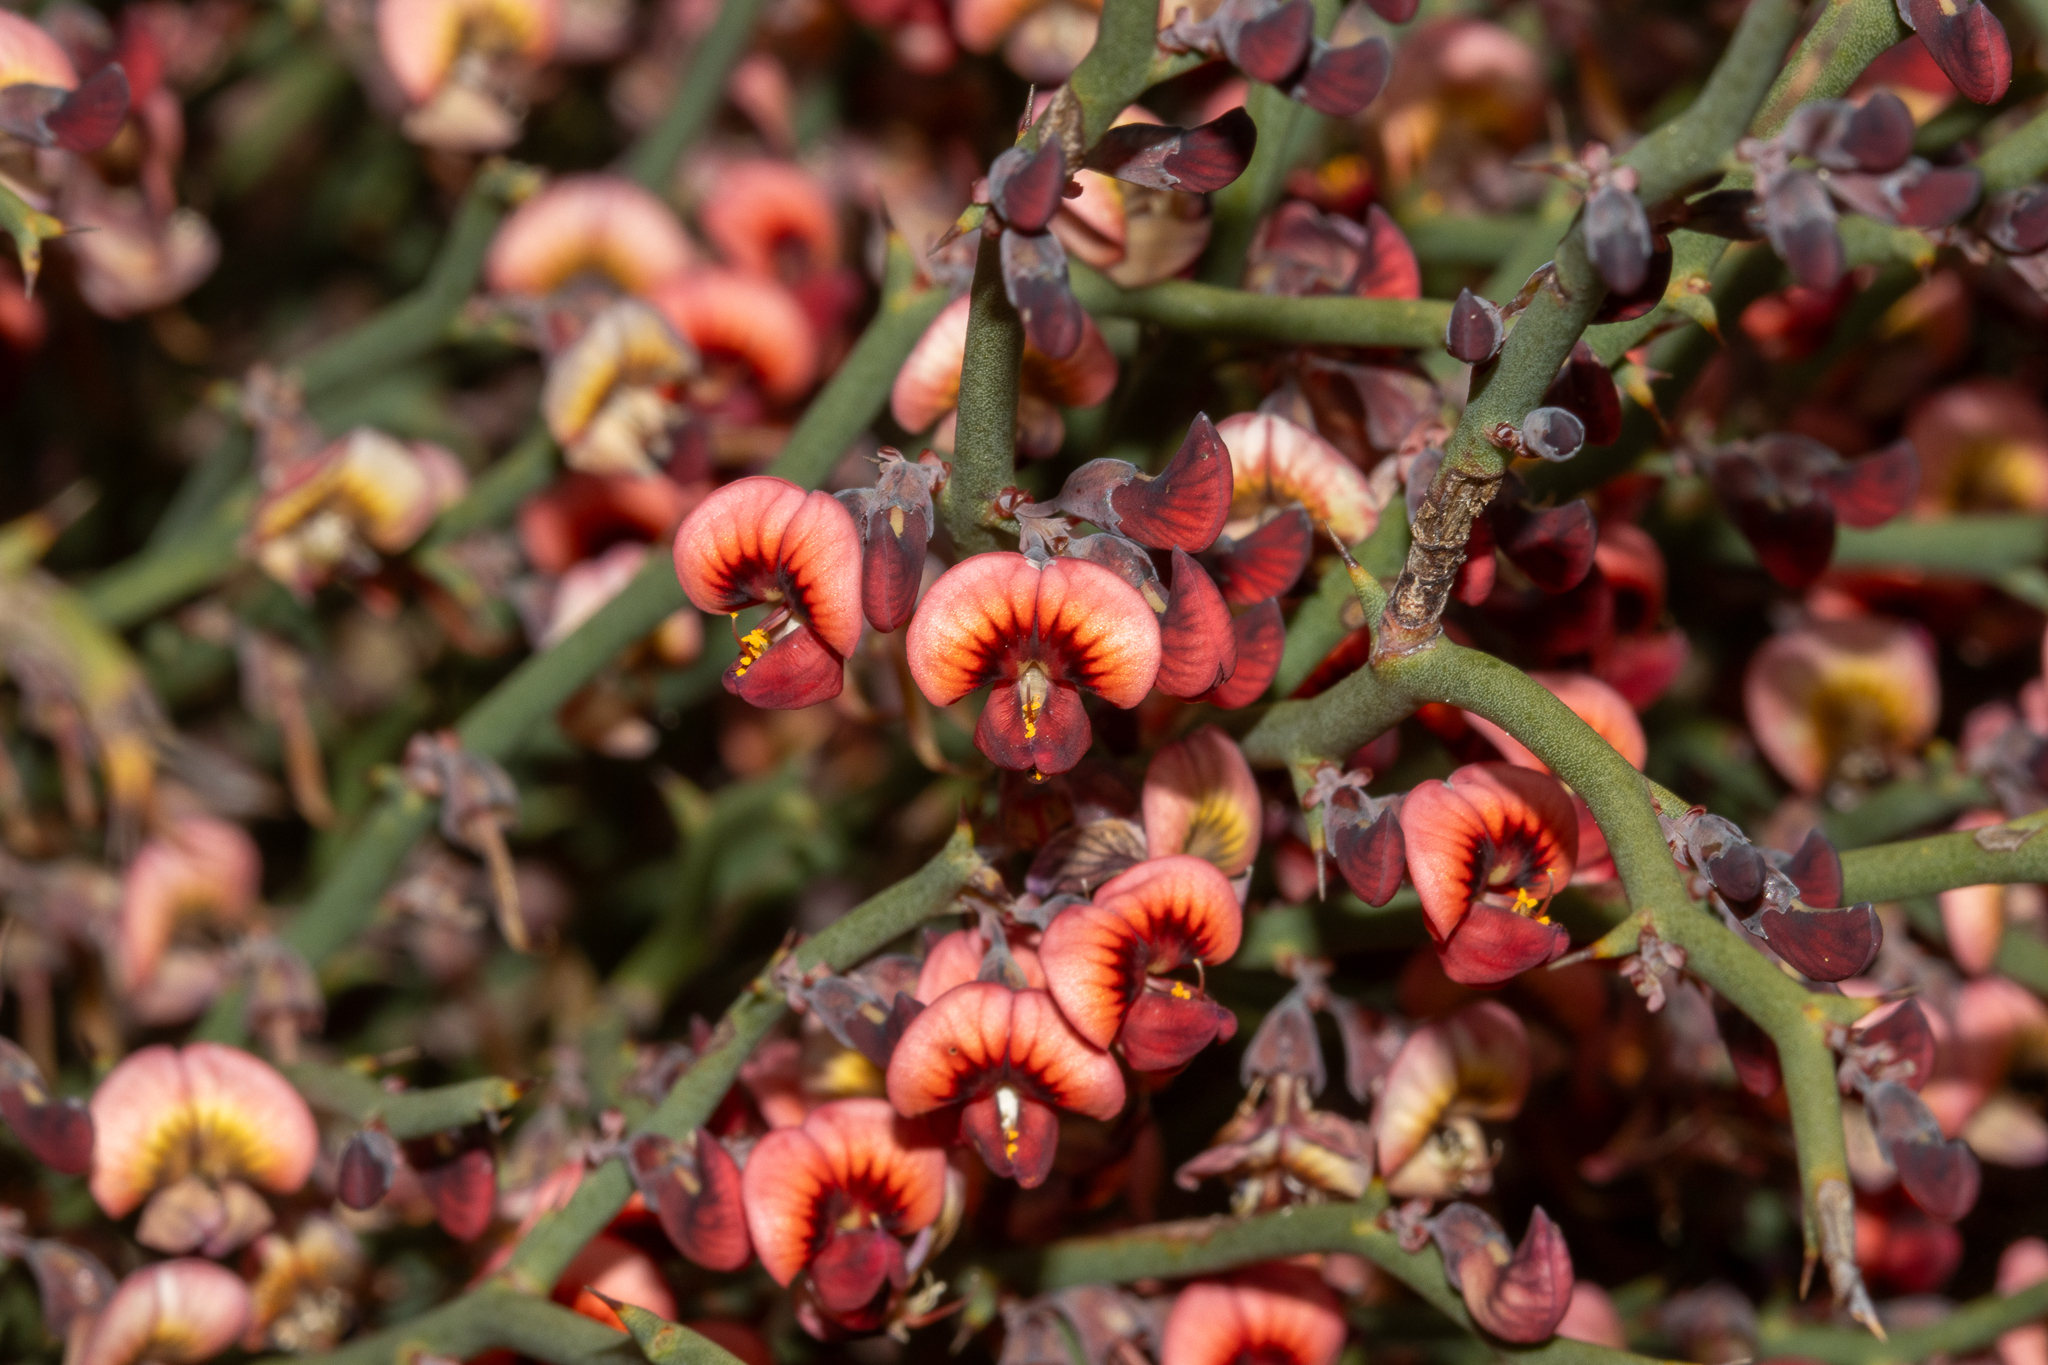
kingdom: Plantae
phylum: Tracheophyta
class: Magnoliopsida
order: Fabales
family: Fabaceae
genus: Daviesia
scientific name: Daviesia brevifolia
